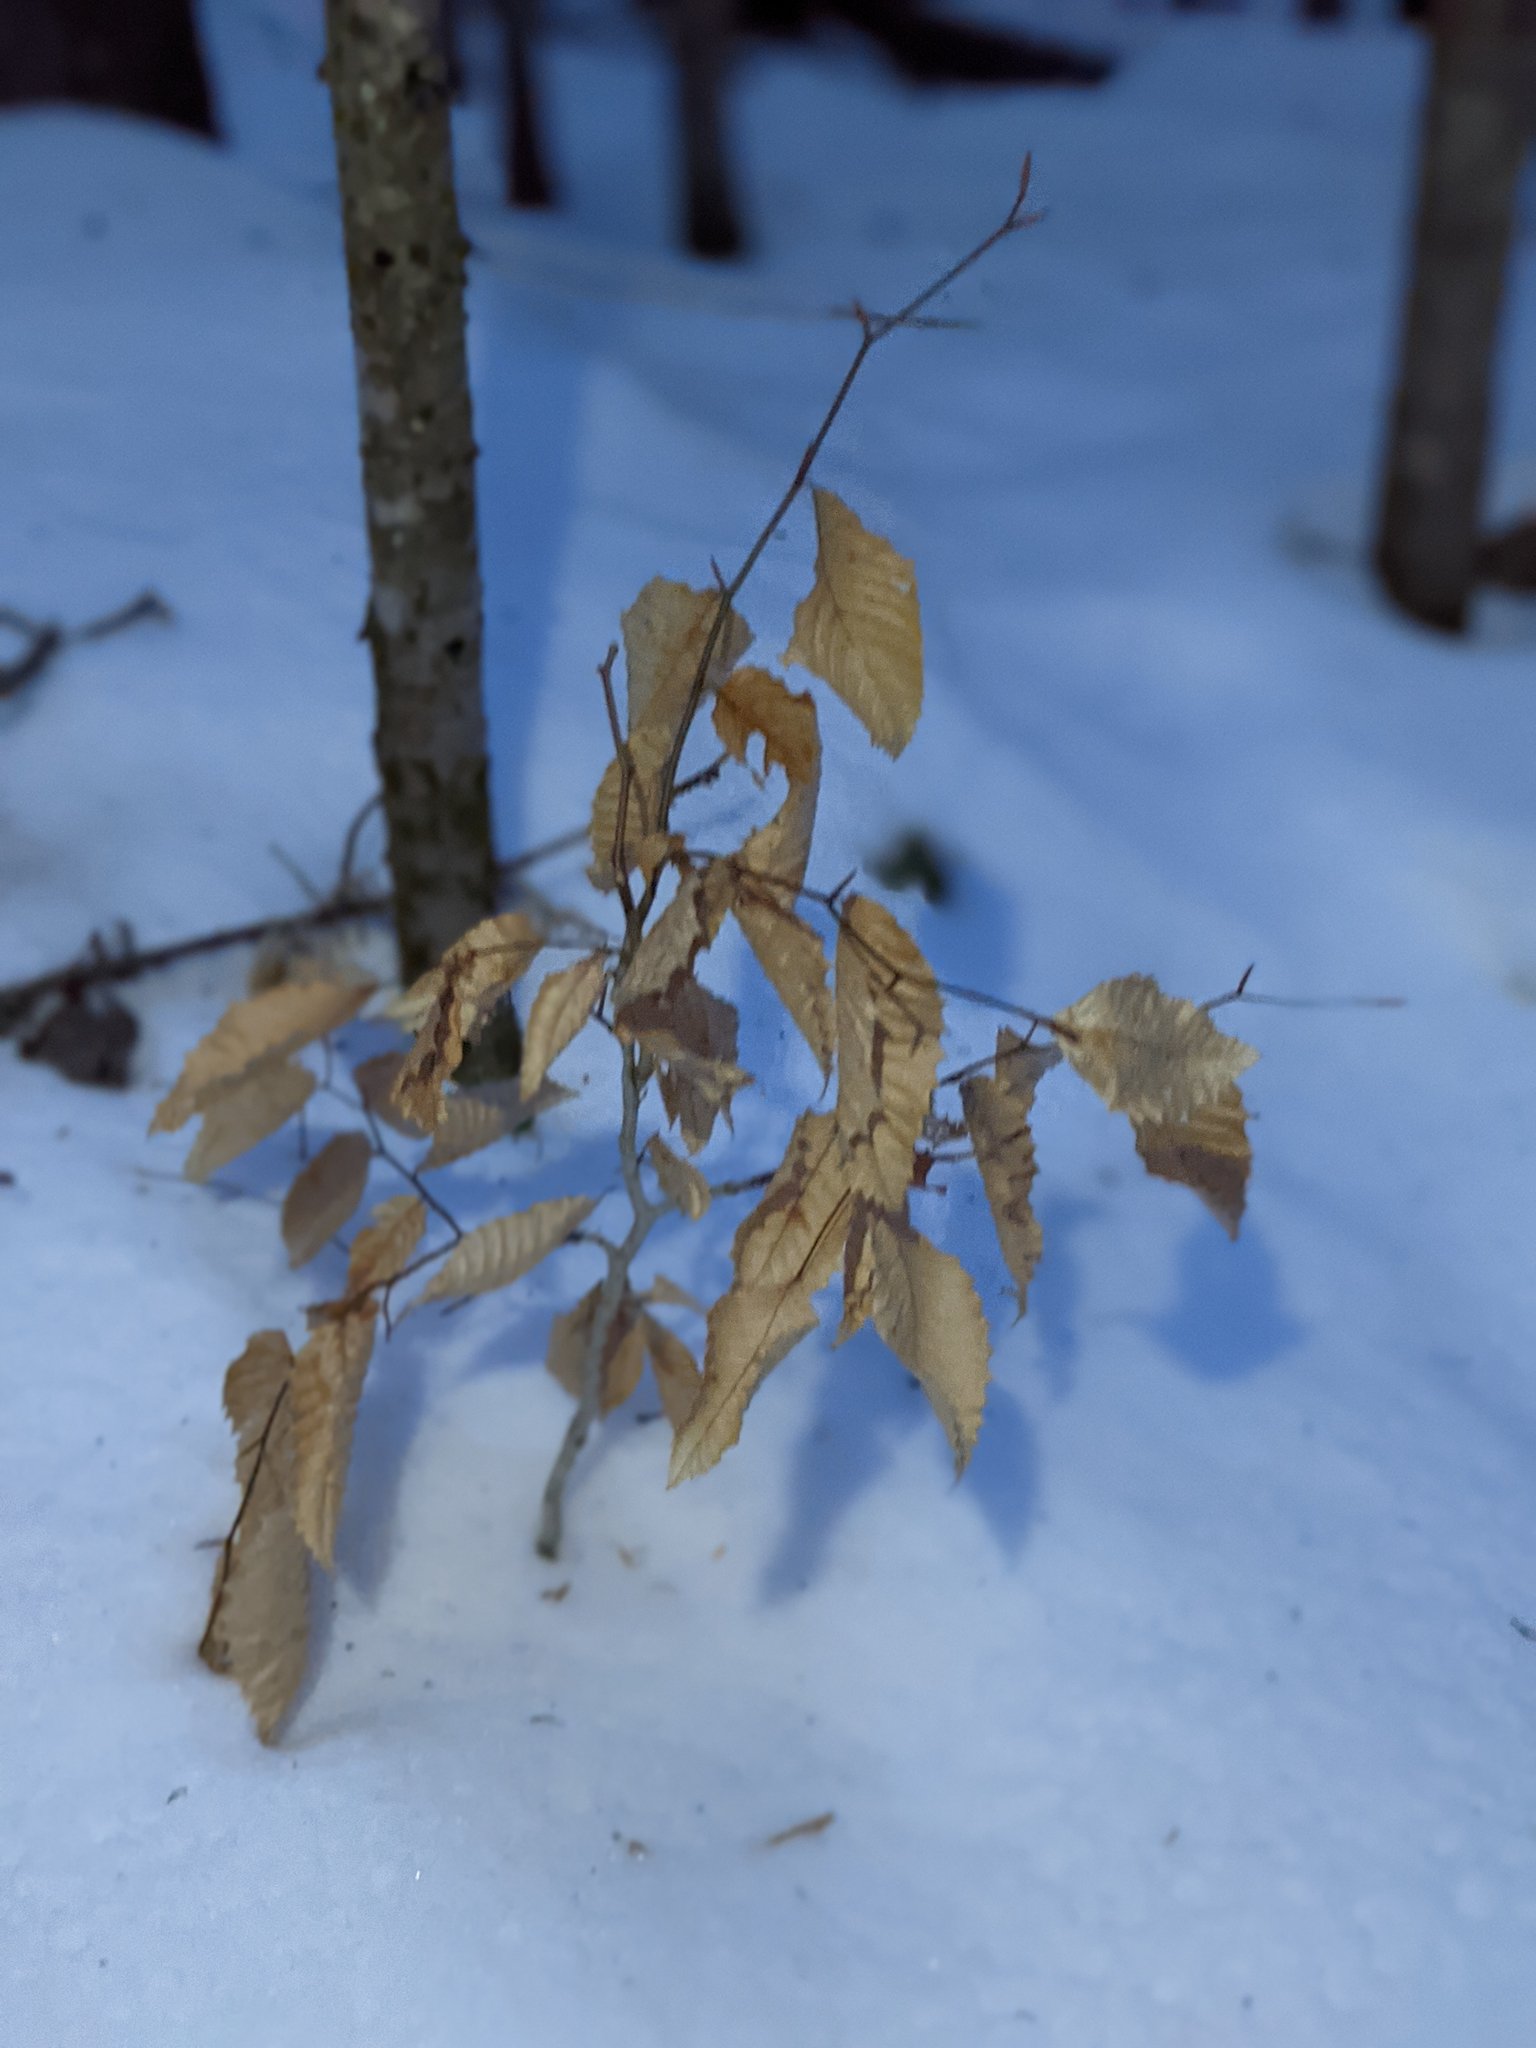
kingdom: Plantae
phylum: Tracheophyta
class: Magnoliopsida
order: Fagales
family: Fagaceae
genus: Fagus
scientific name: Fagus grandifolia
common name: American beech
